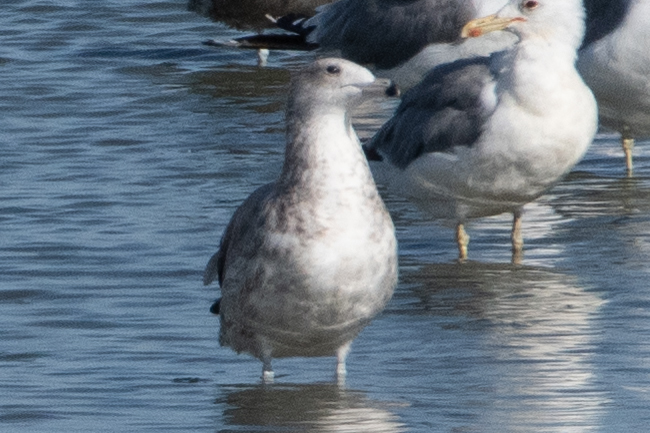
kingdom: Animalia
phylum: Chordata
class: Aves
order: Charadriiformes
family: Laridae
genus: Larus
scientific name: Larus californicus
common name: California gull
